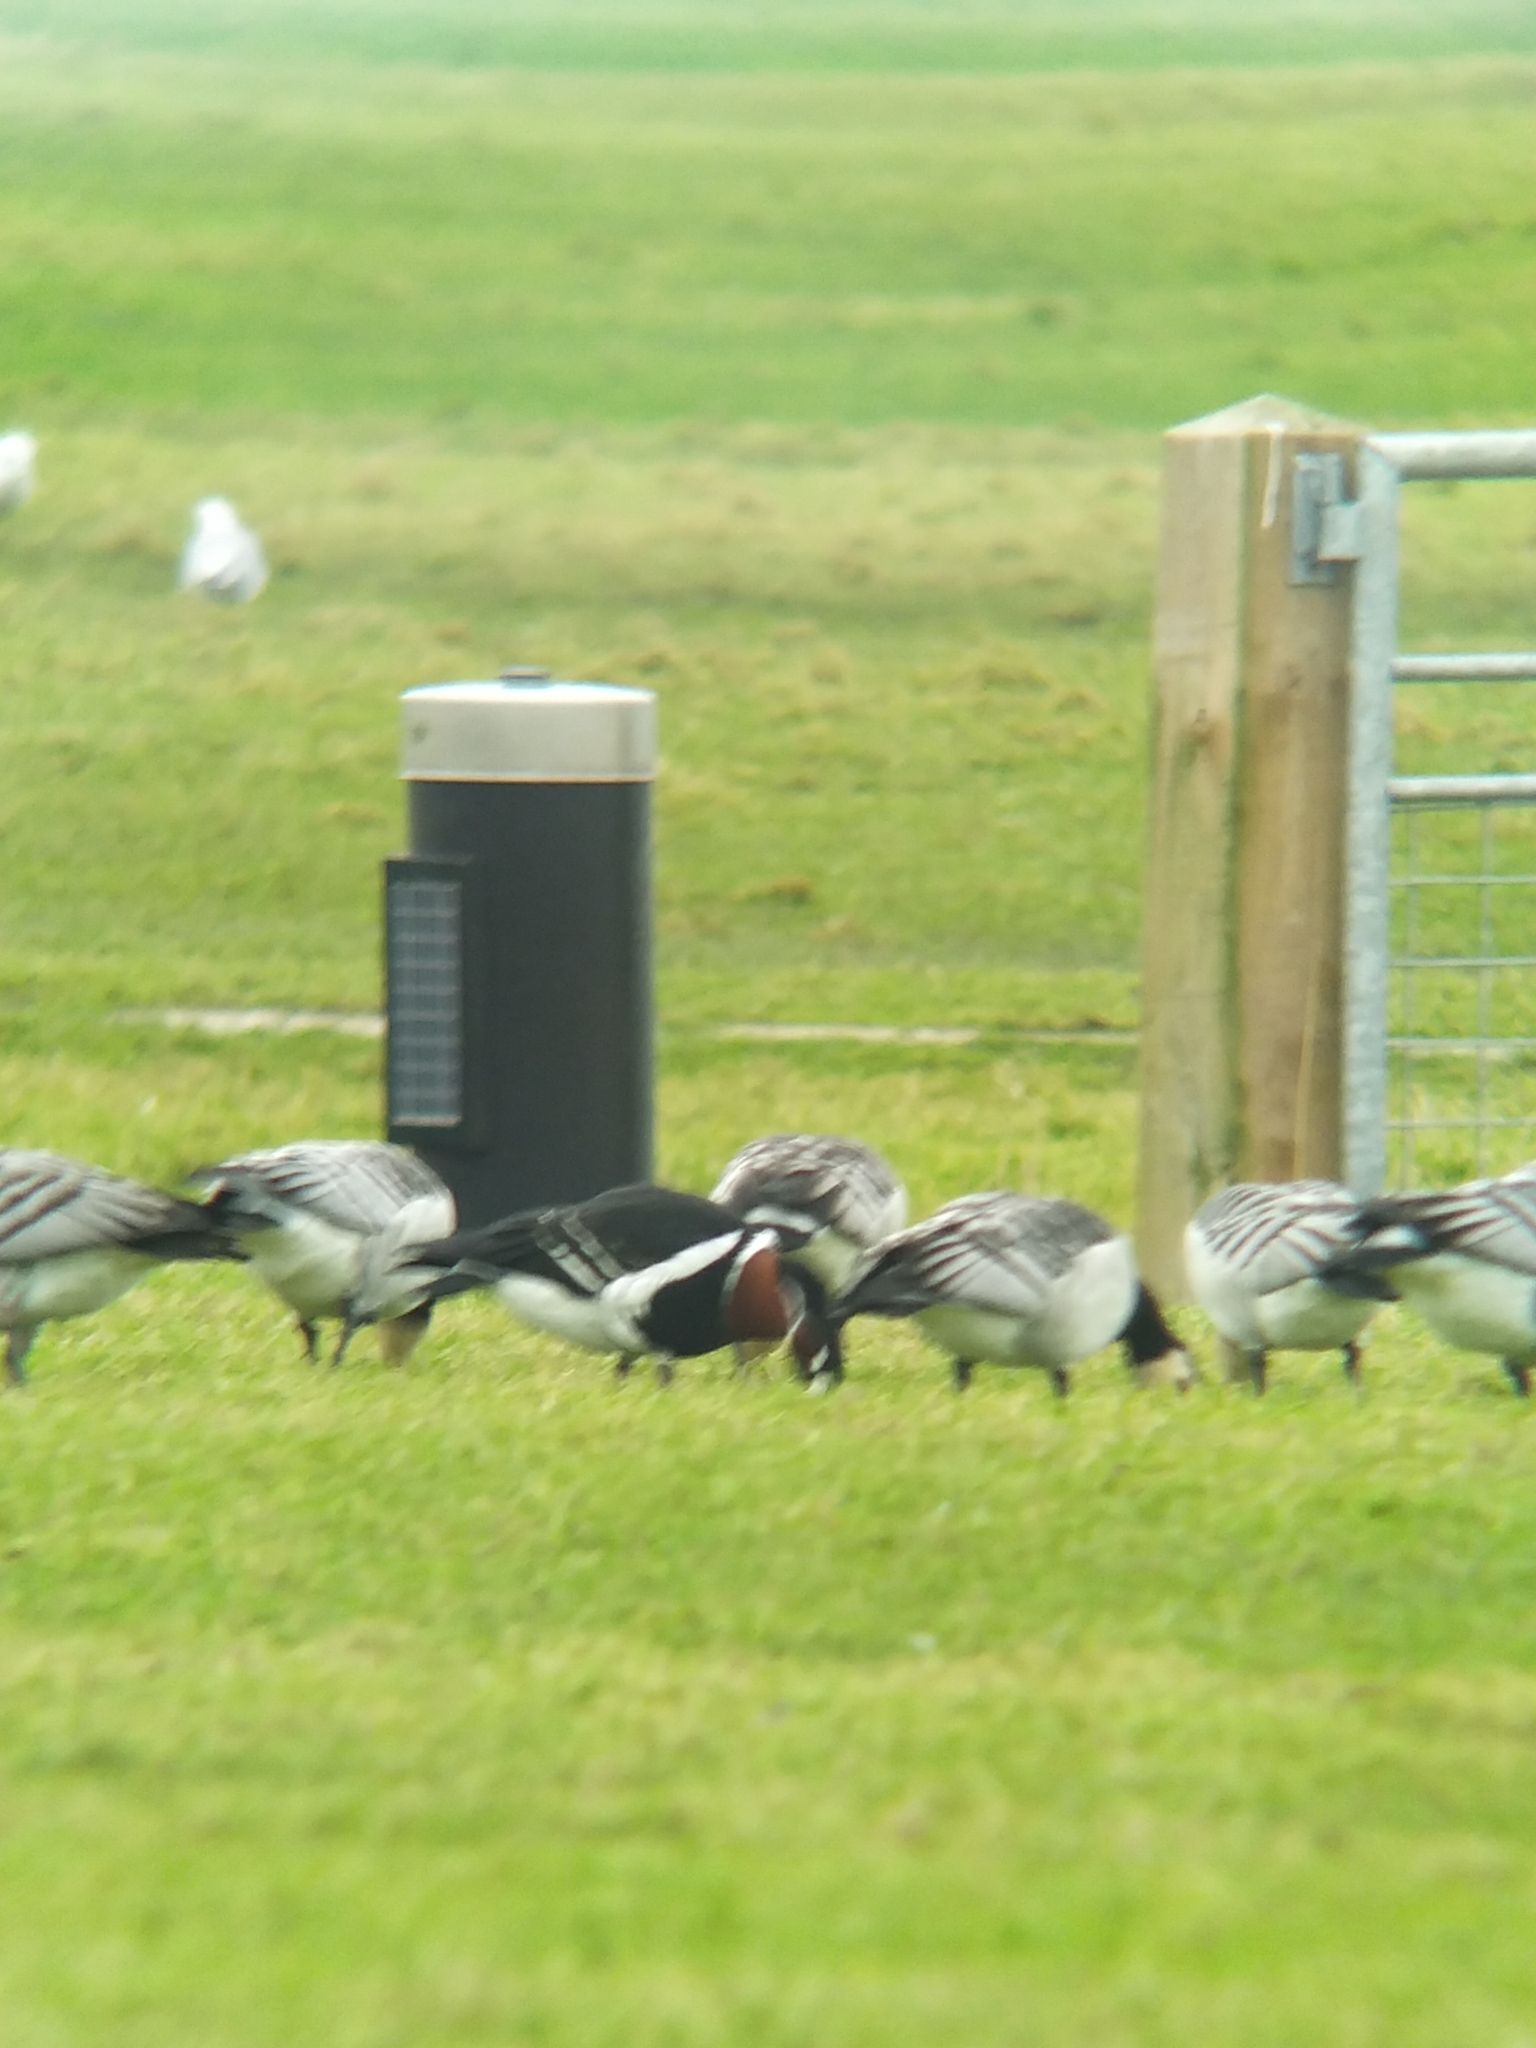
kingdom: Animalia
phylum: Chordata
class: Aves
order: Anseriformes
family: Anatidae
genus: Branta
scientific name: Branta ruficollis
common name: Red-breasted goose
